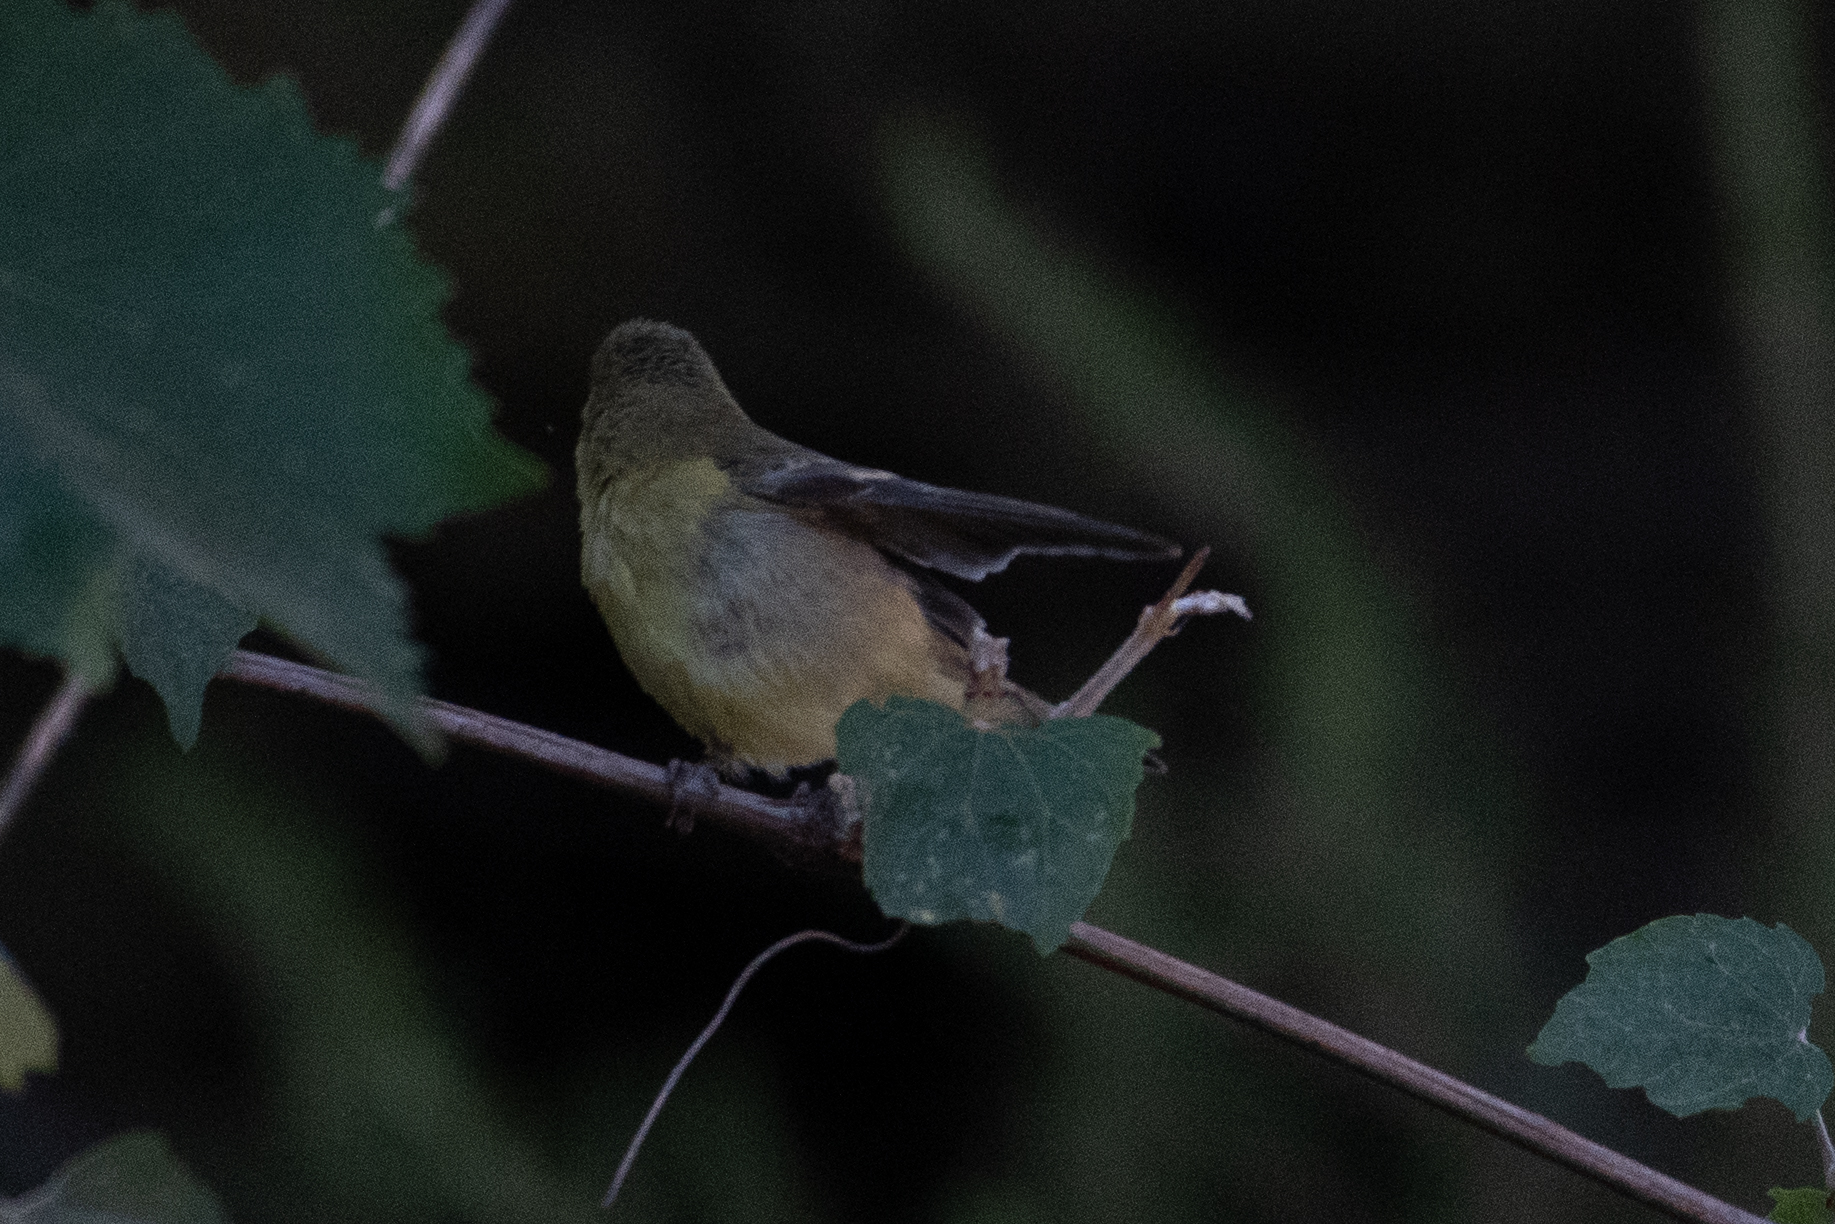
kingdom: Animalia
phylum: Chordata
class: Aves
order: Passeriformes
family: Fringillidae
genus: Spinus
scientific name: Spinus psaltria
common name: Lesser goldfinch
